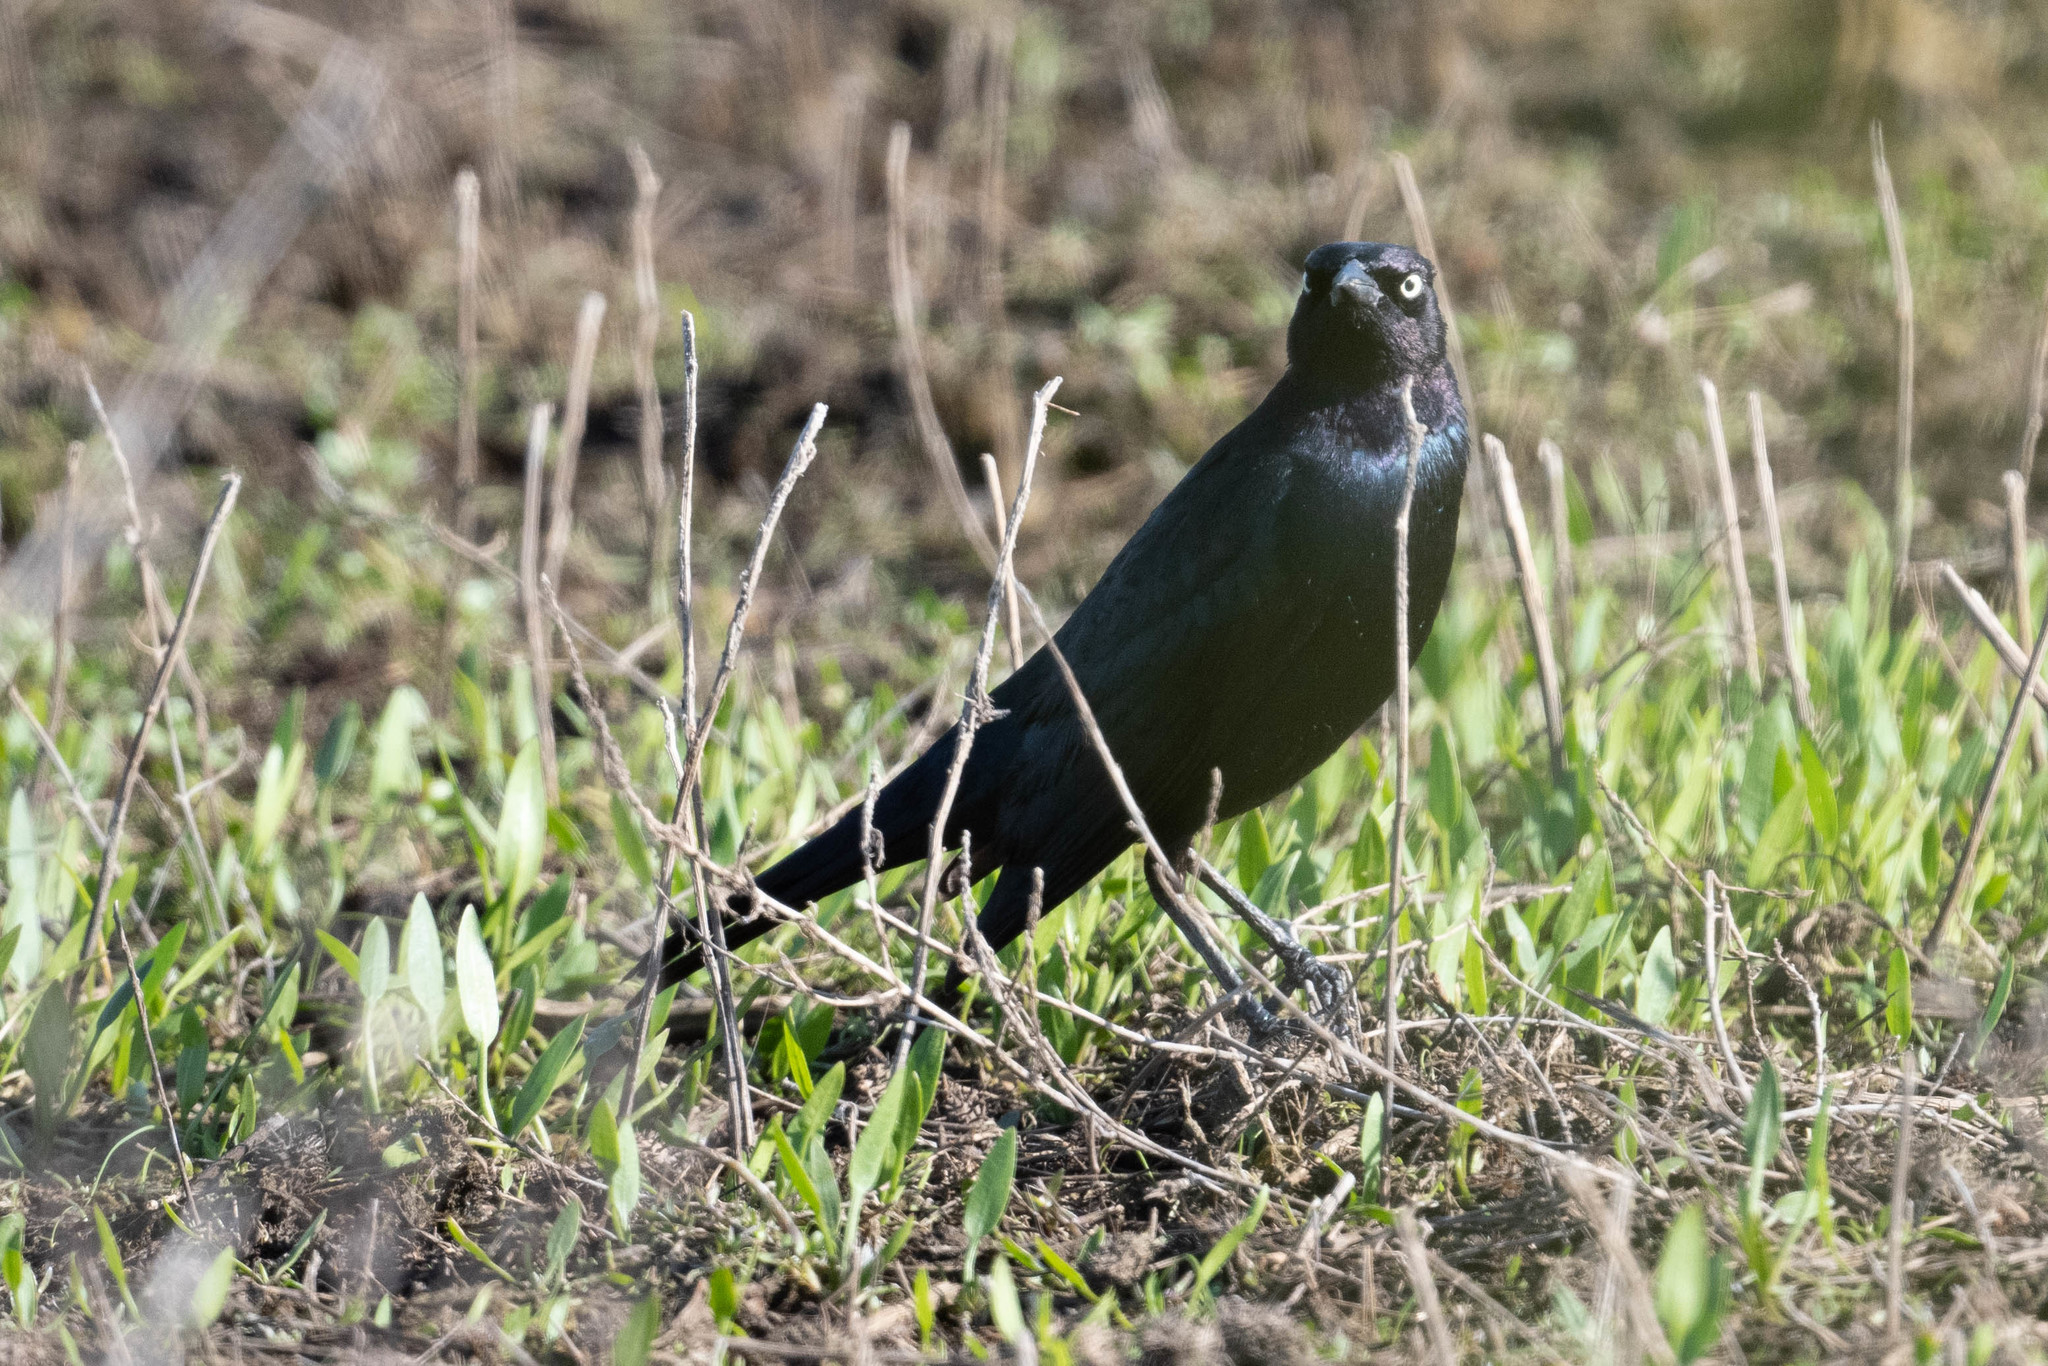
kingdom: Animalia
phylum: Chordata
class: Aves
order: Passeriformes
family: Icteridae
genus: Euphagus
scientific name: Euphagus cyanocephalus
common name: Brewer's blackbird
